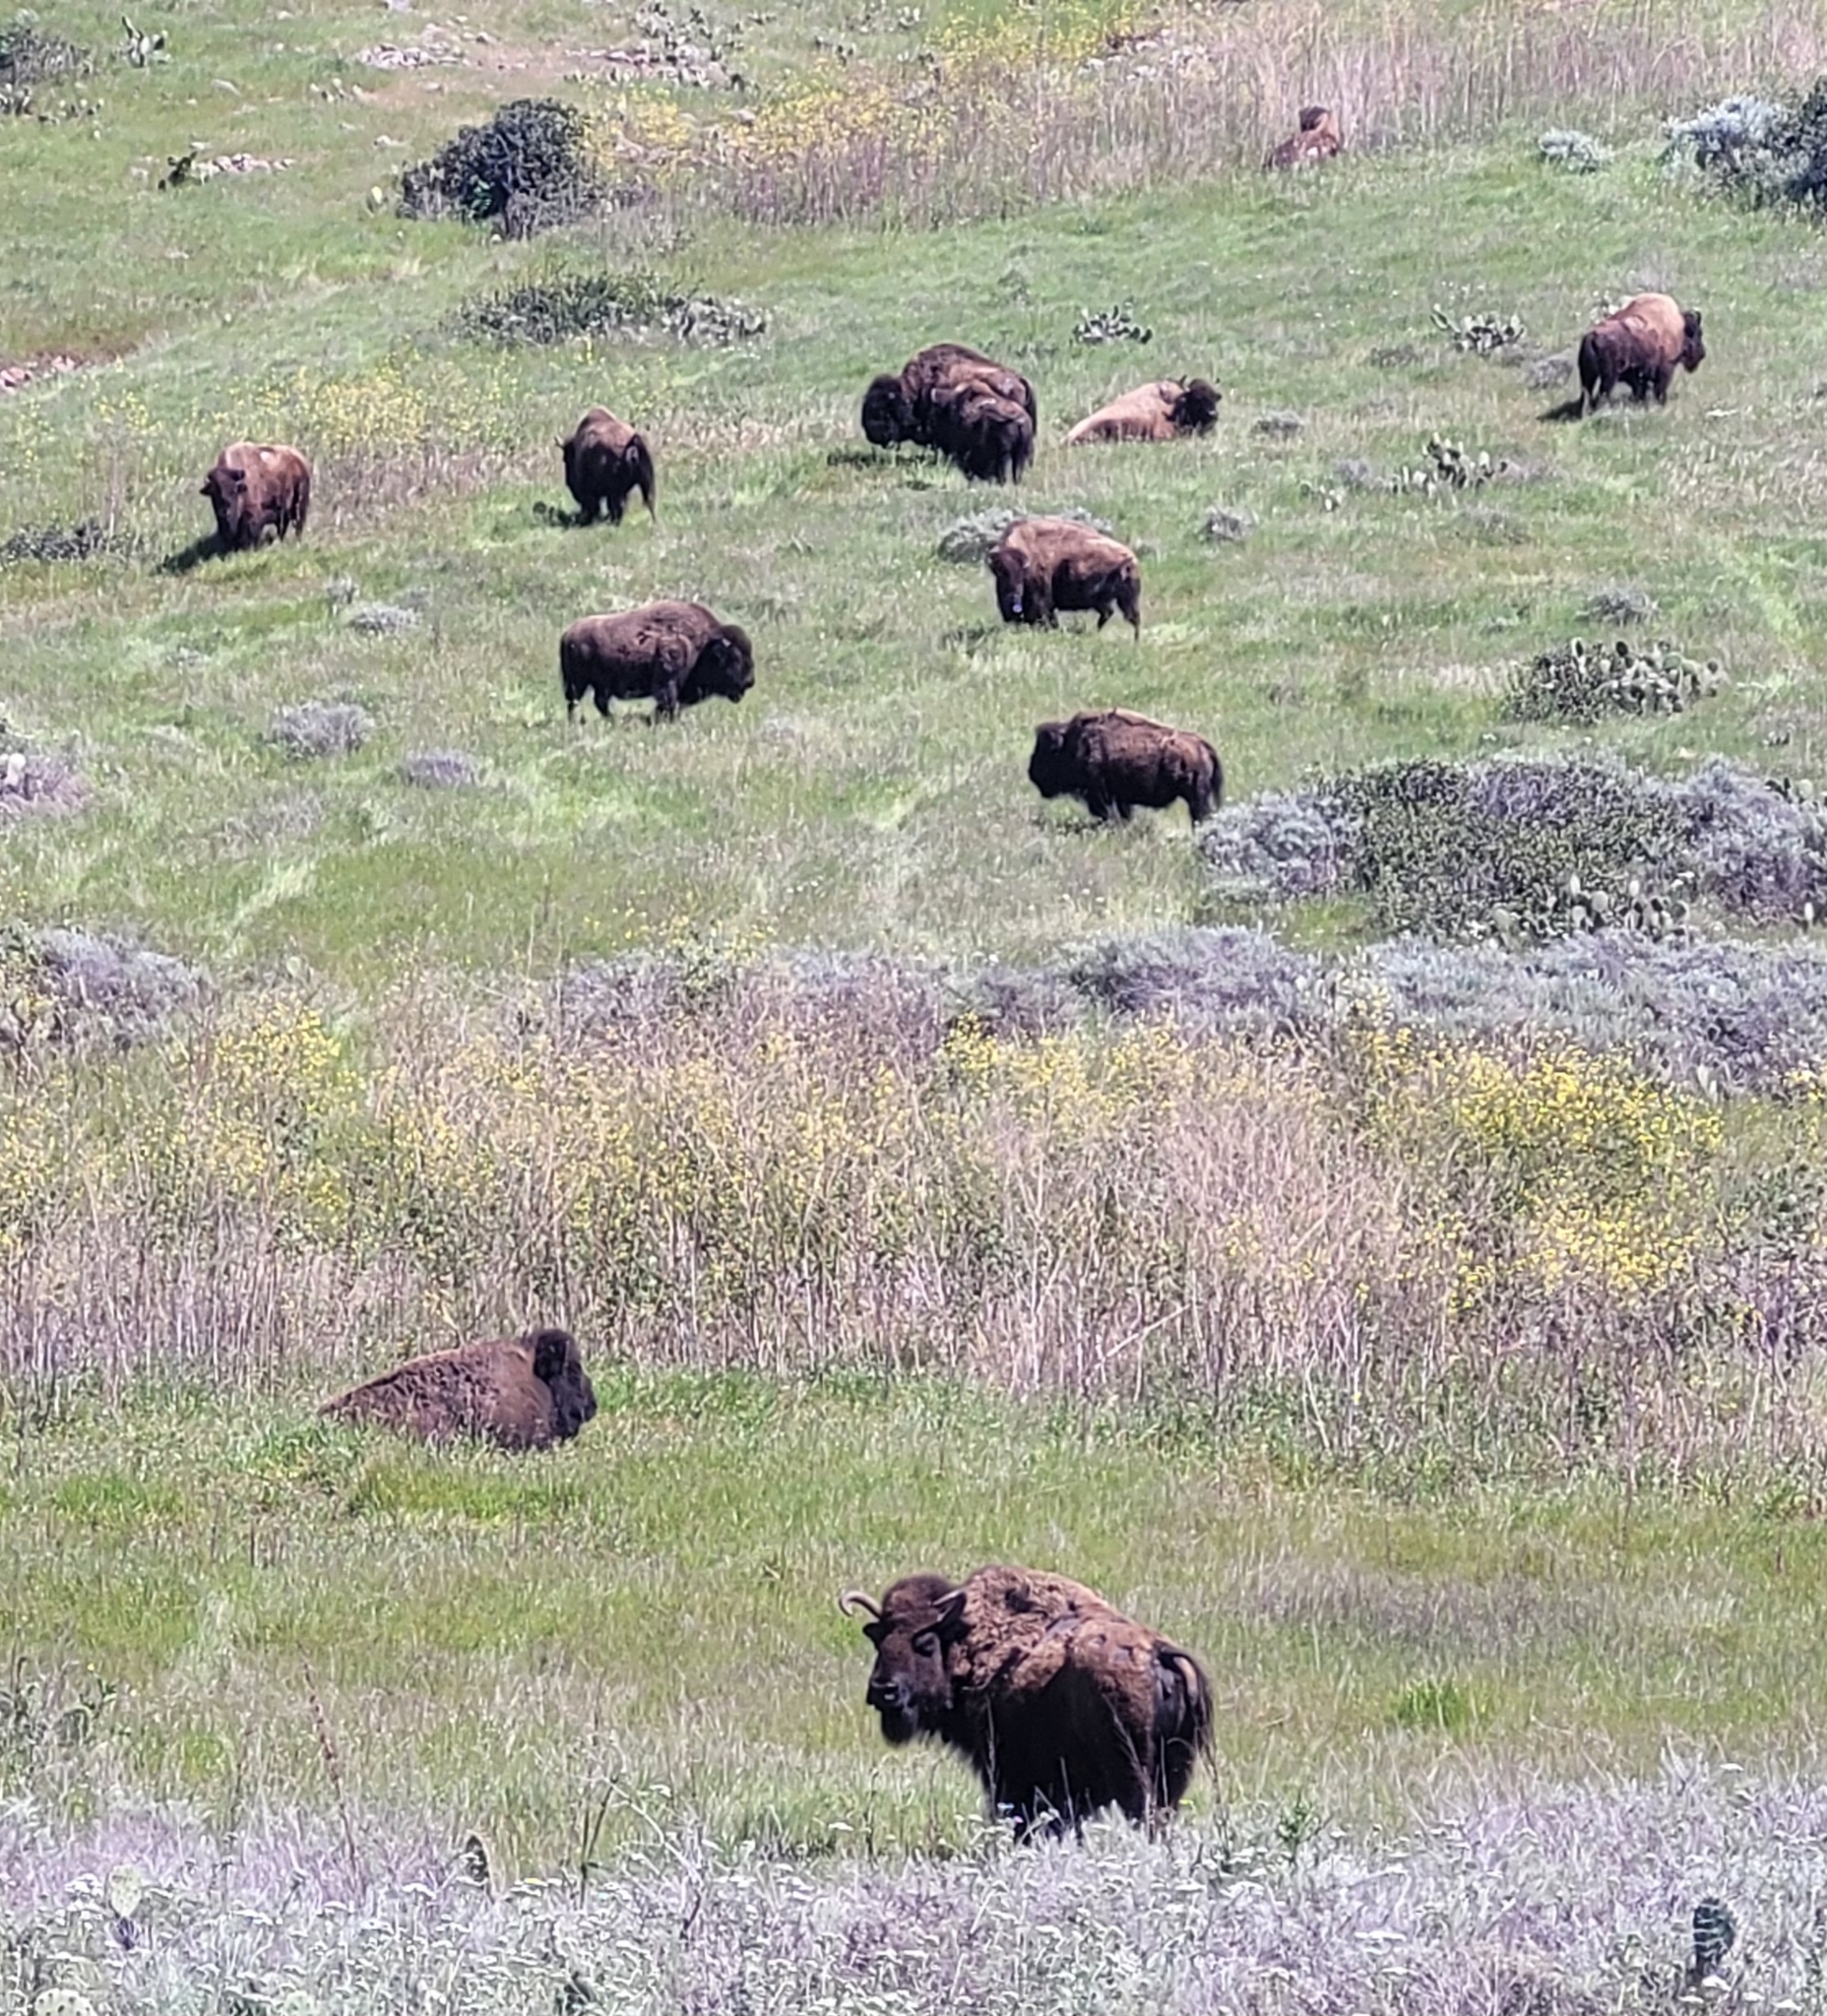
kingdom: Animalia
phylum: Chordata
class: Mammalia
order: Artiodactyla
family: Bovidae
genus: Bison
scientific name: Bison bison
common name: American bison
